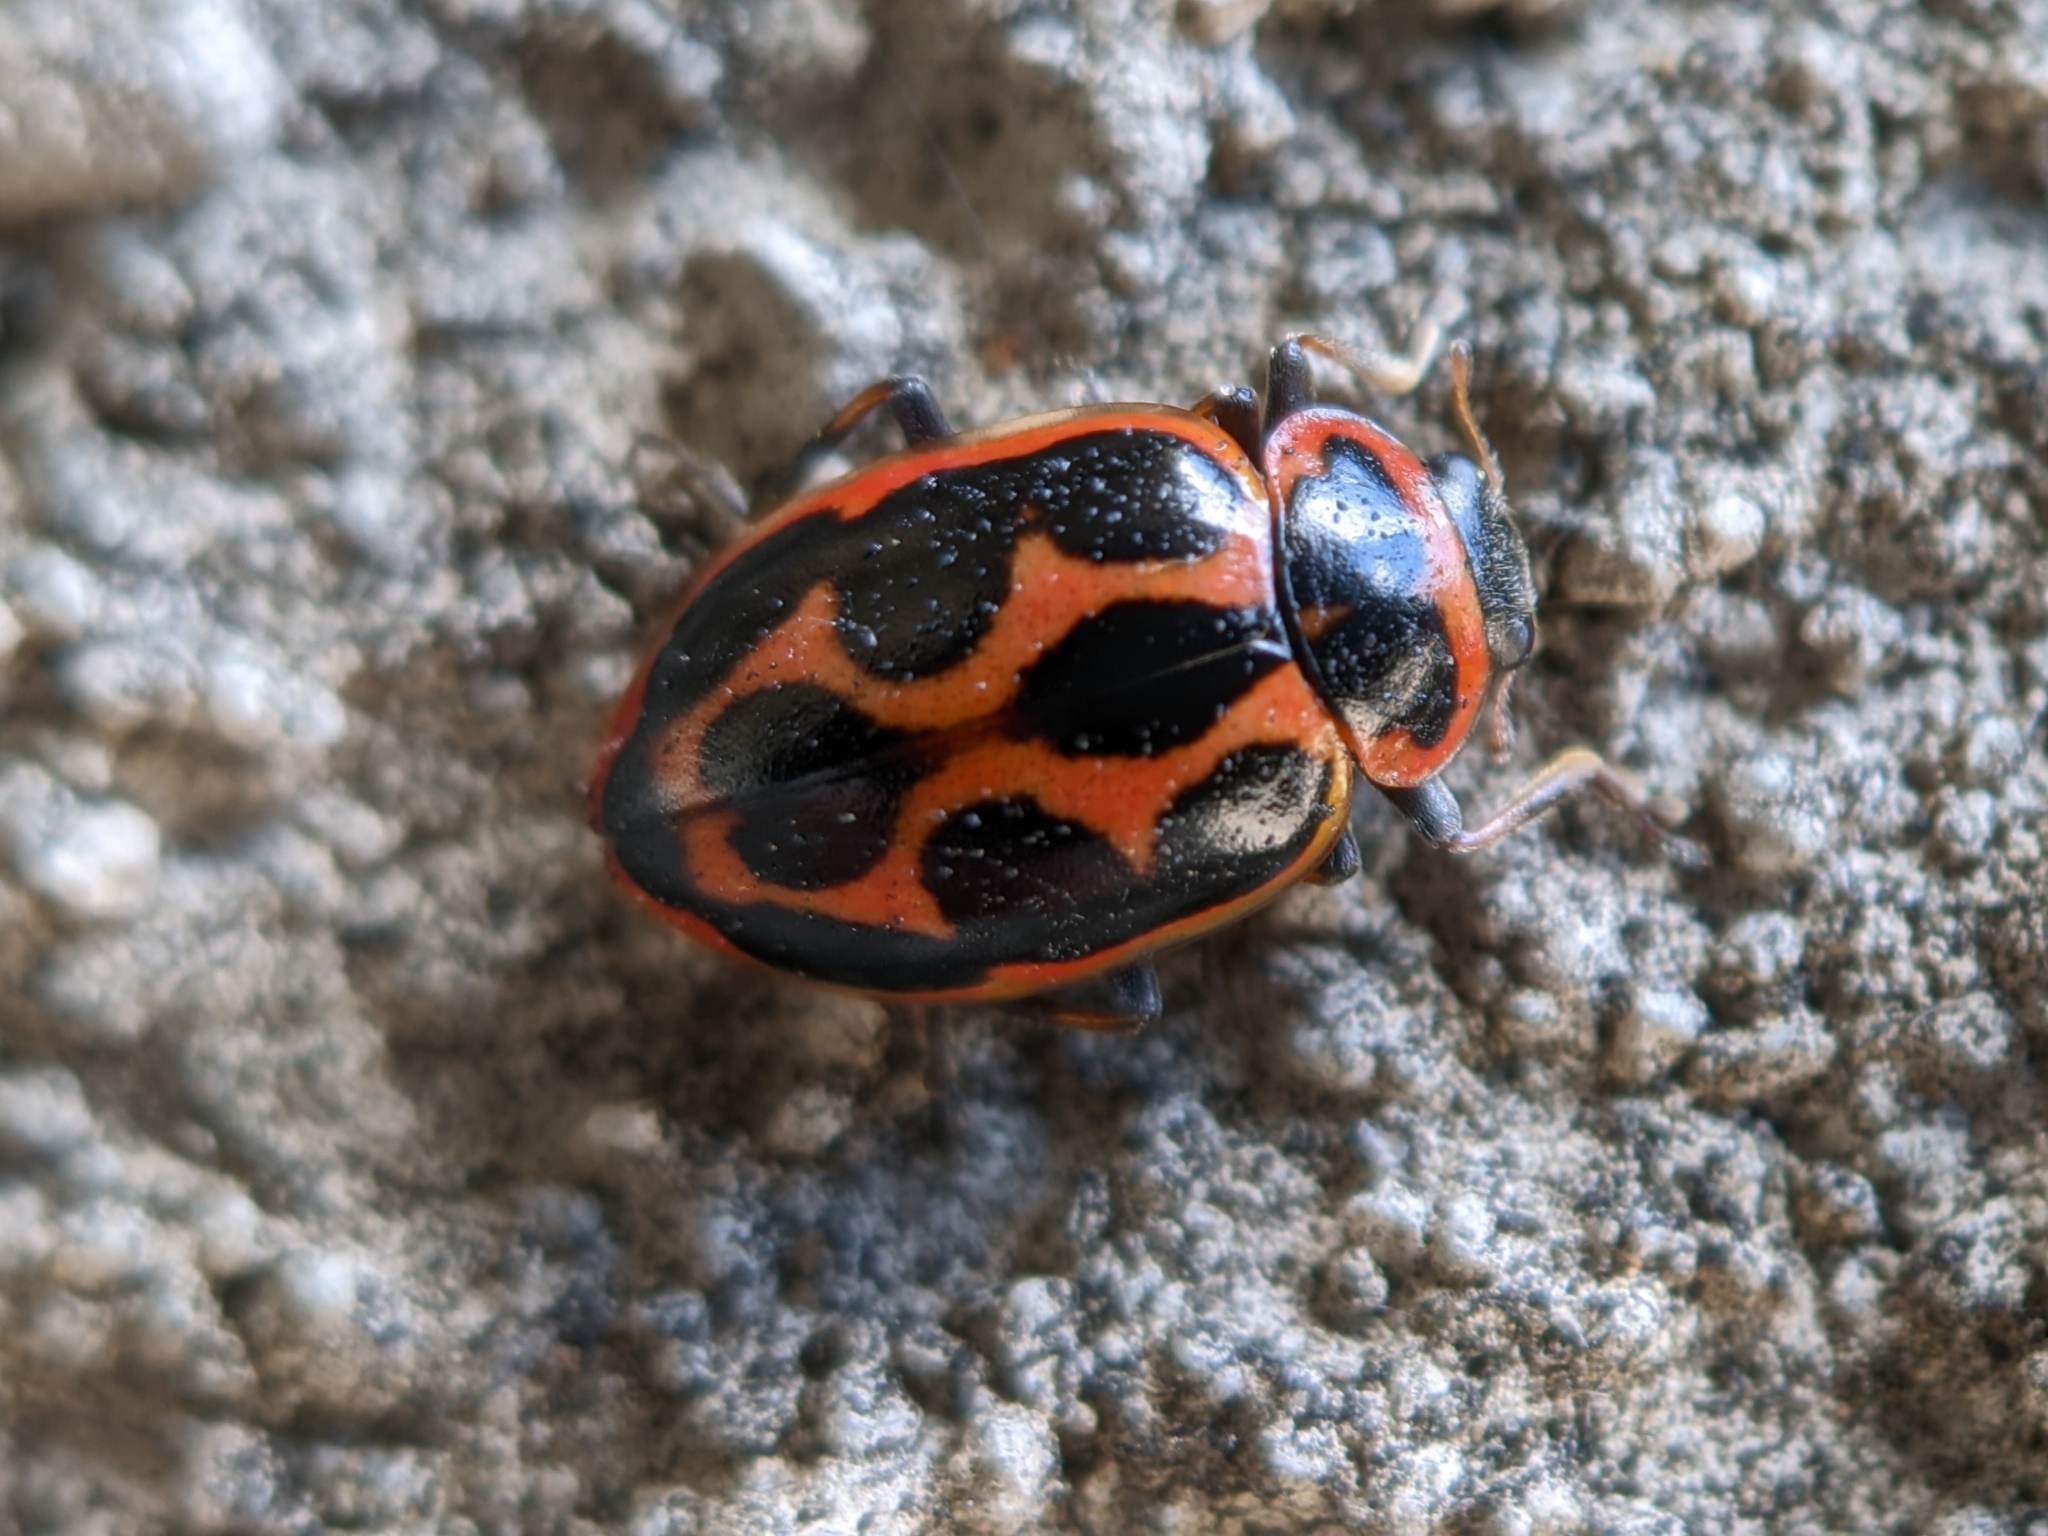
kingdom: Animalia
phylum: Arthropoda
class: Insecta
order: Coleoptera
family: Coccinellidae
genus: Naemia
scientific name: Naemia seriata
